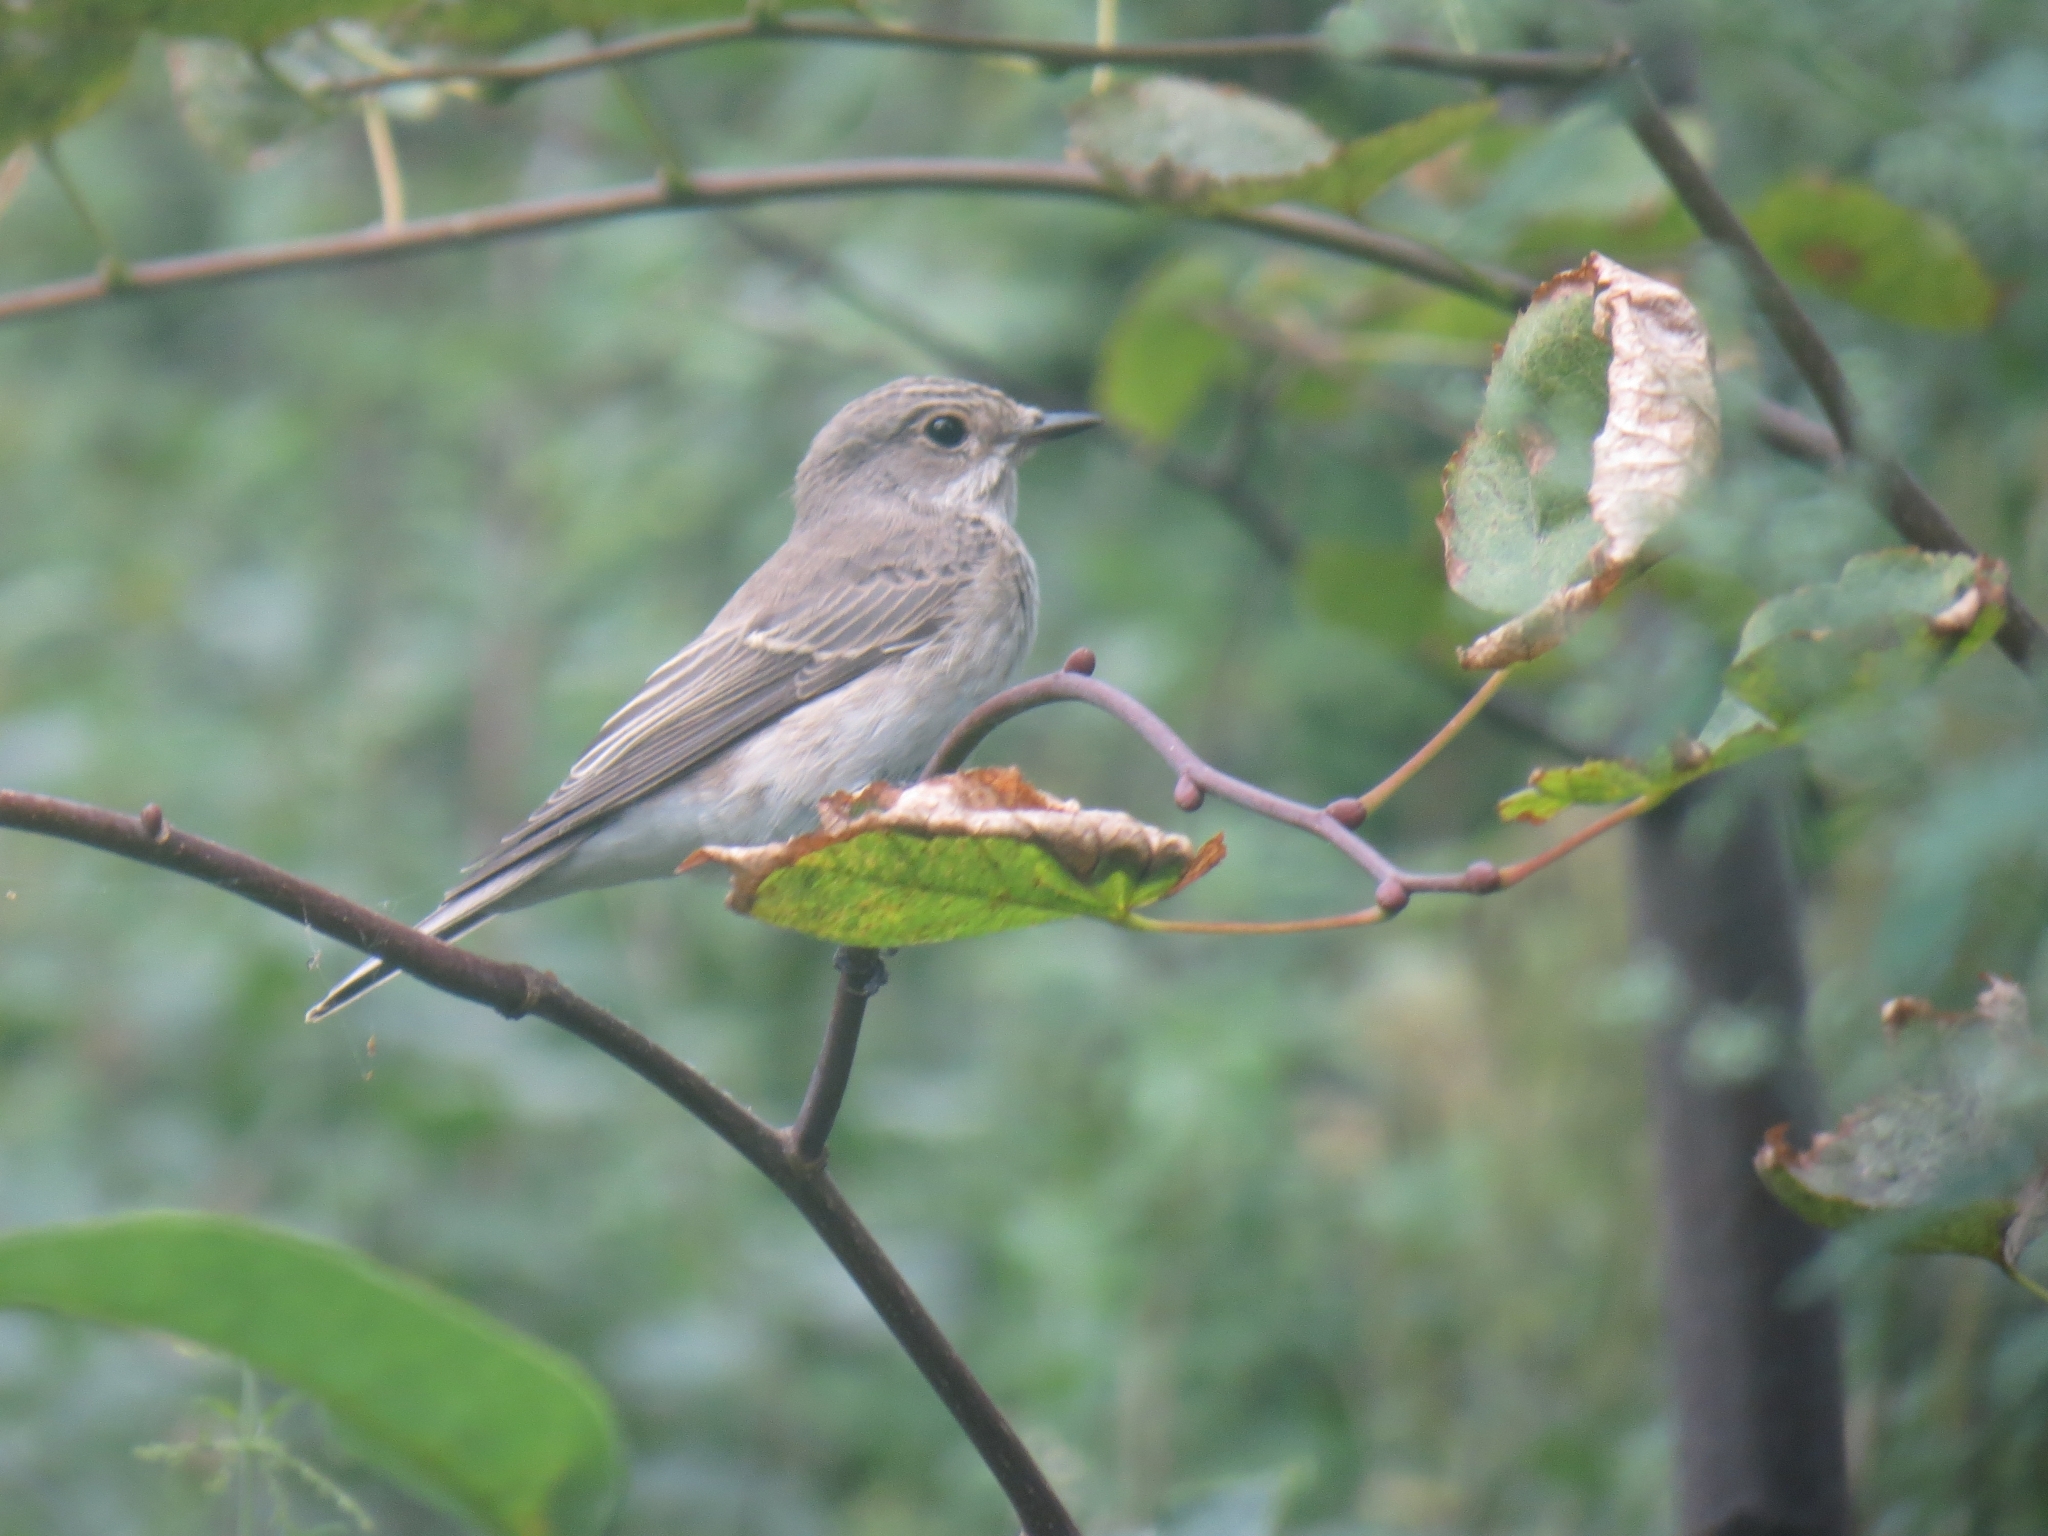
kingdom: Animalia
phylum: Chordata
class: Aves
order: Passeriformes
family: Muscicapidae
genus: Muscicapa
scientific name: Muscicapa striata
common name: Spotted flycatcher
